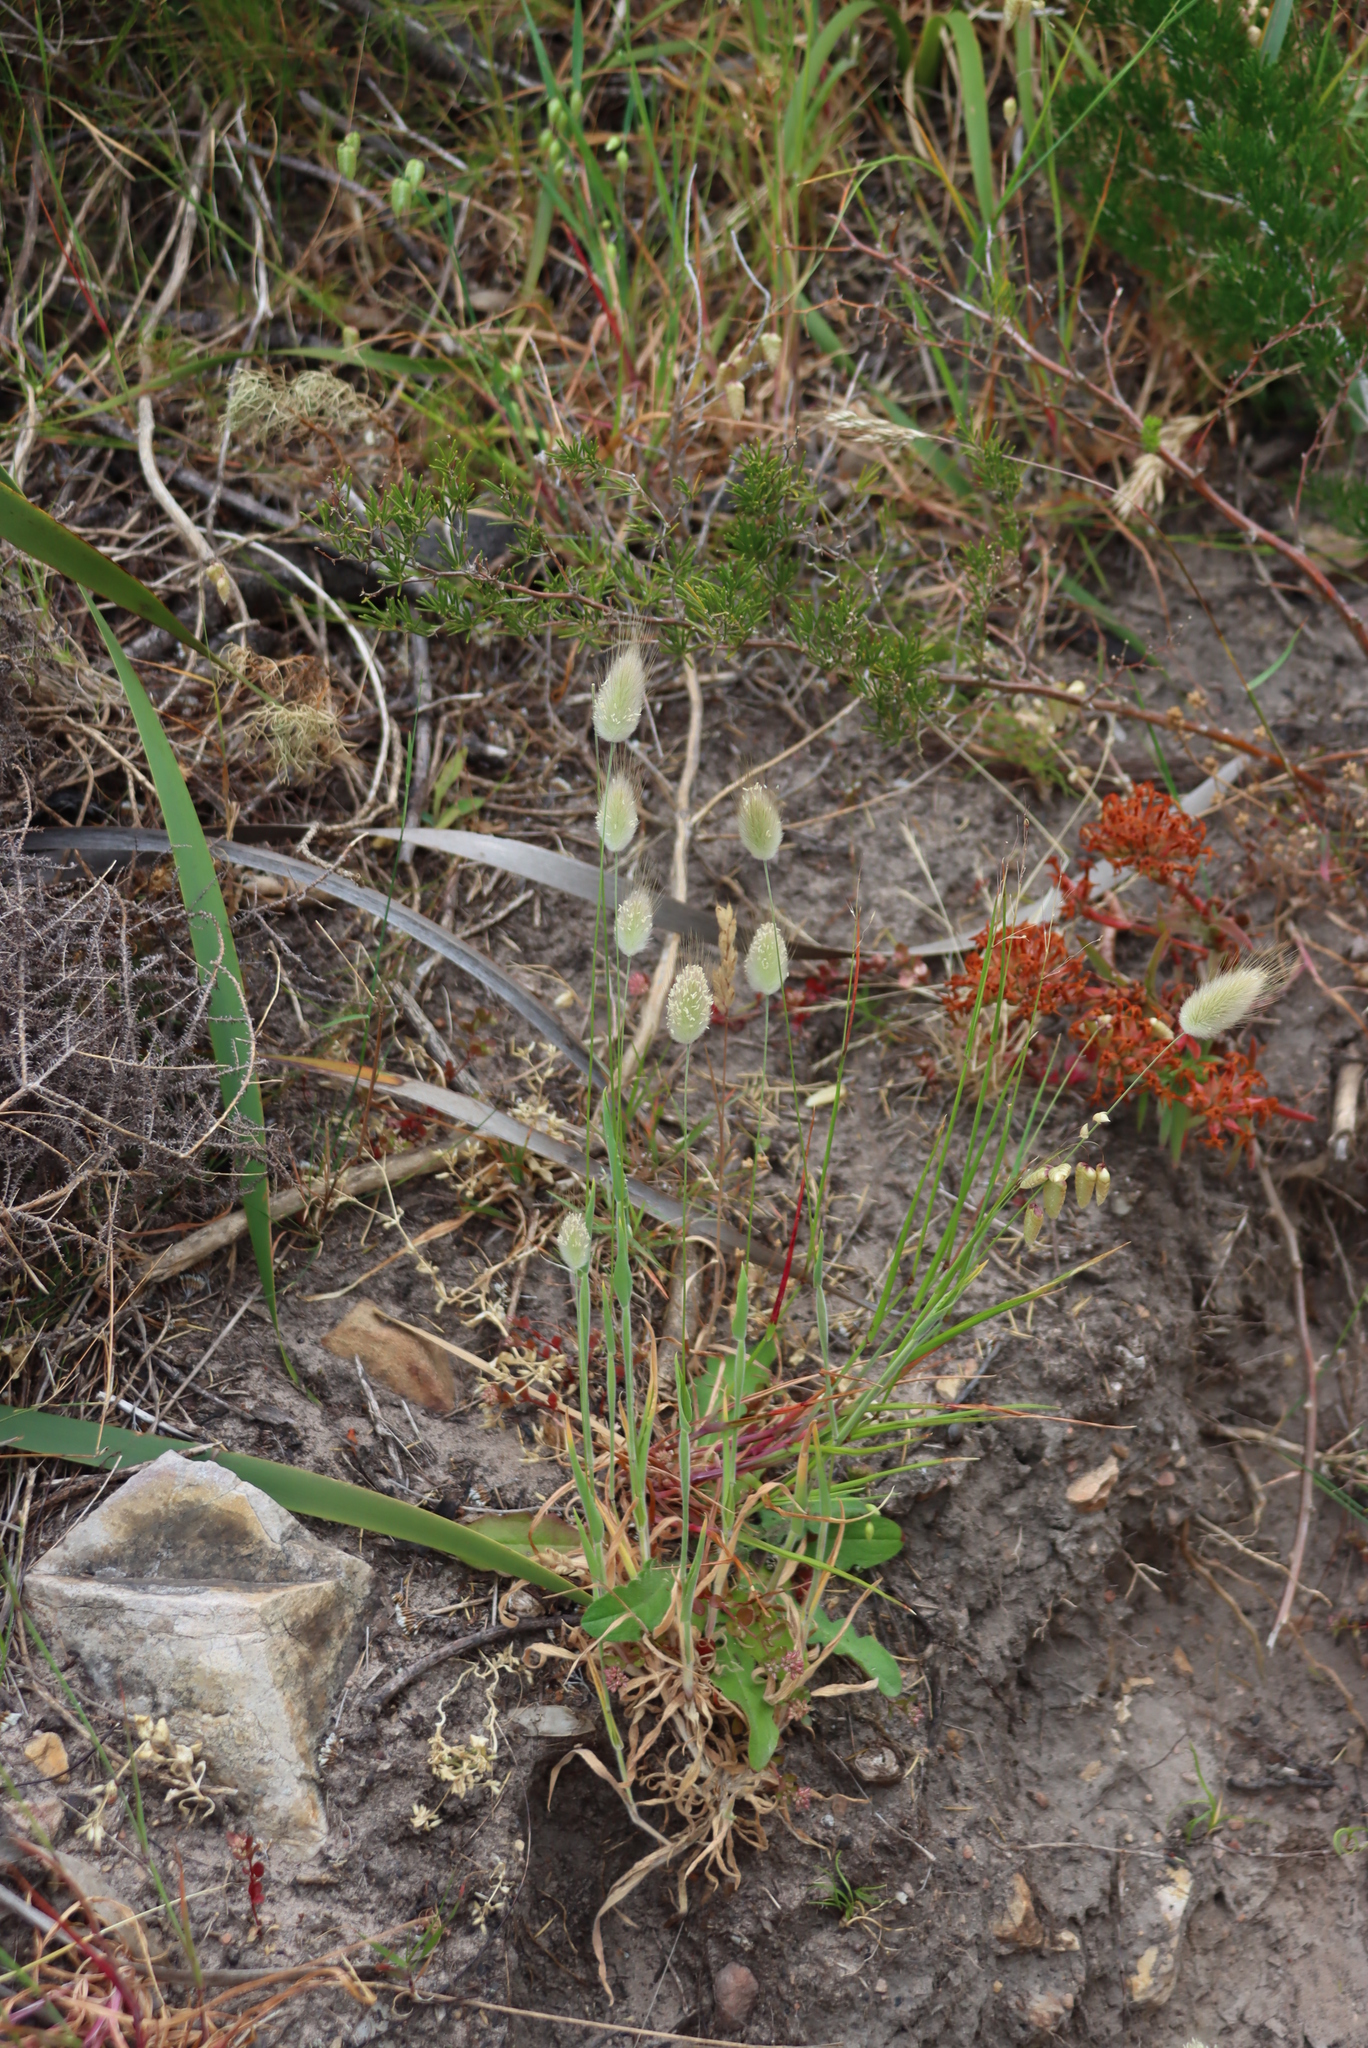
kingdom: Plantae
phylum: Tracheophyta
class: Liliopsida
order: Poales
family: Poaceae
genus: Lagurus
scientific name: Lagurus ovatus
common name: Hare's-tail
